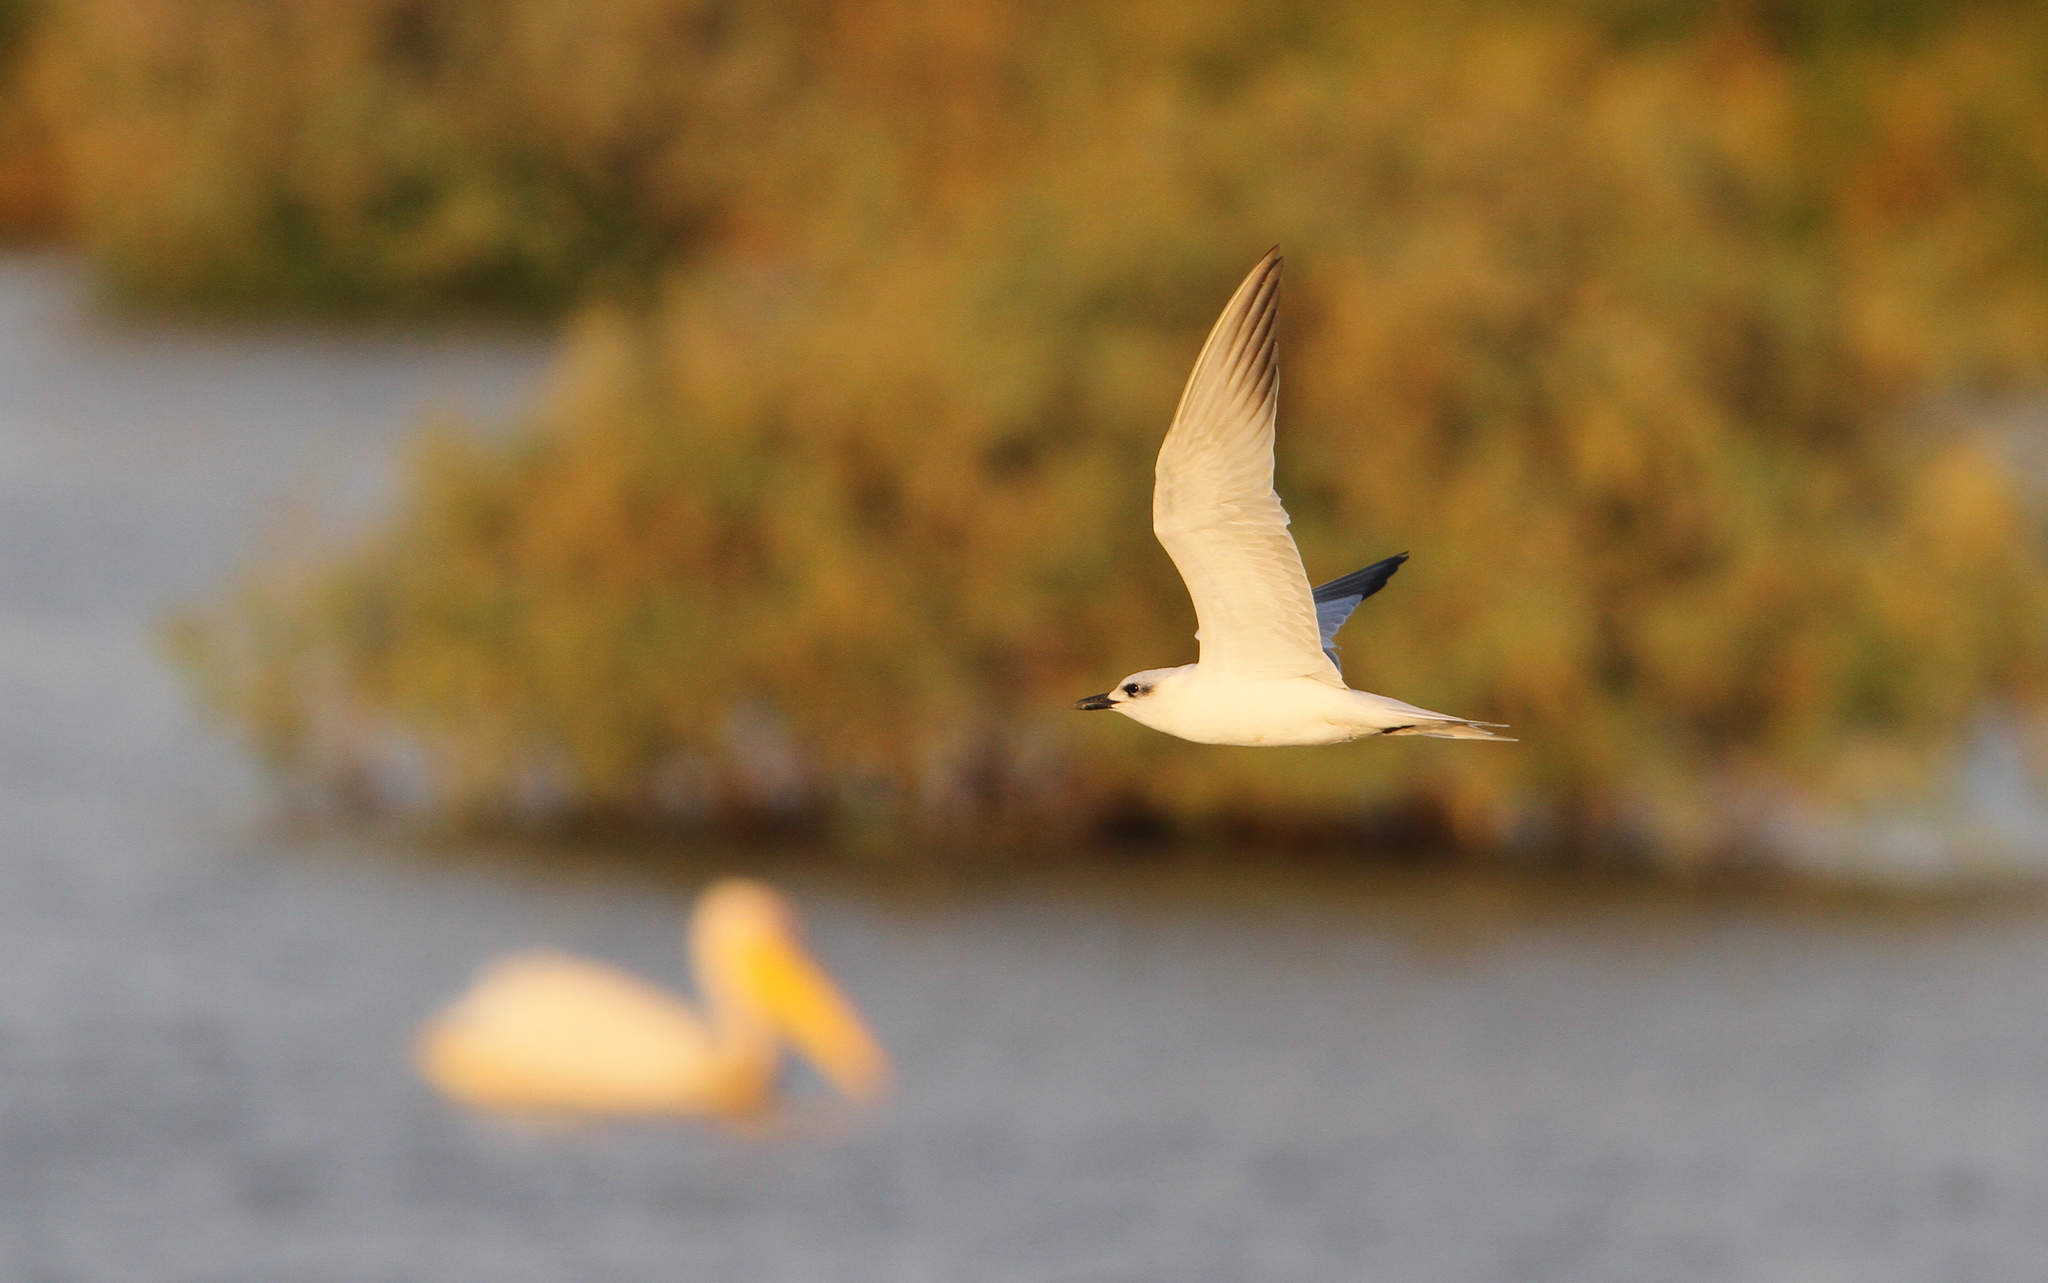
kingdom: Animalia
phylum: Chordata
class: Aves
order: Charadriiformes
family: Laridae
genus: Gelochelidon
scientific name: Gelochelidon nilotica
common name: Gull-billed tern
